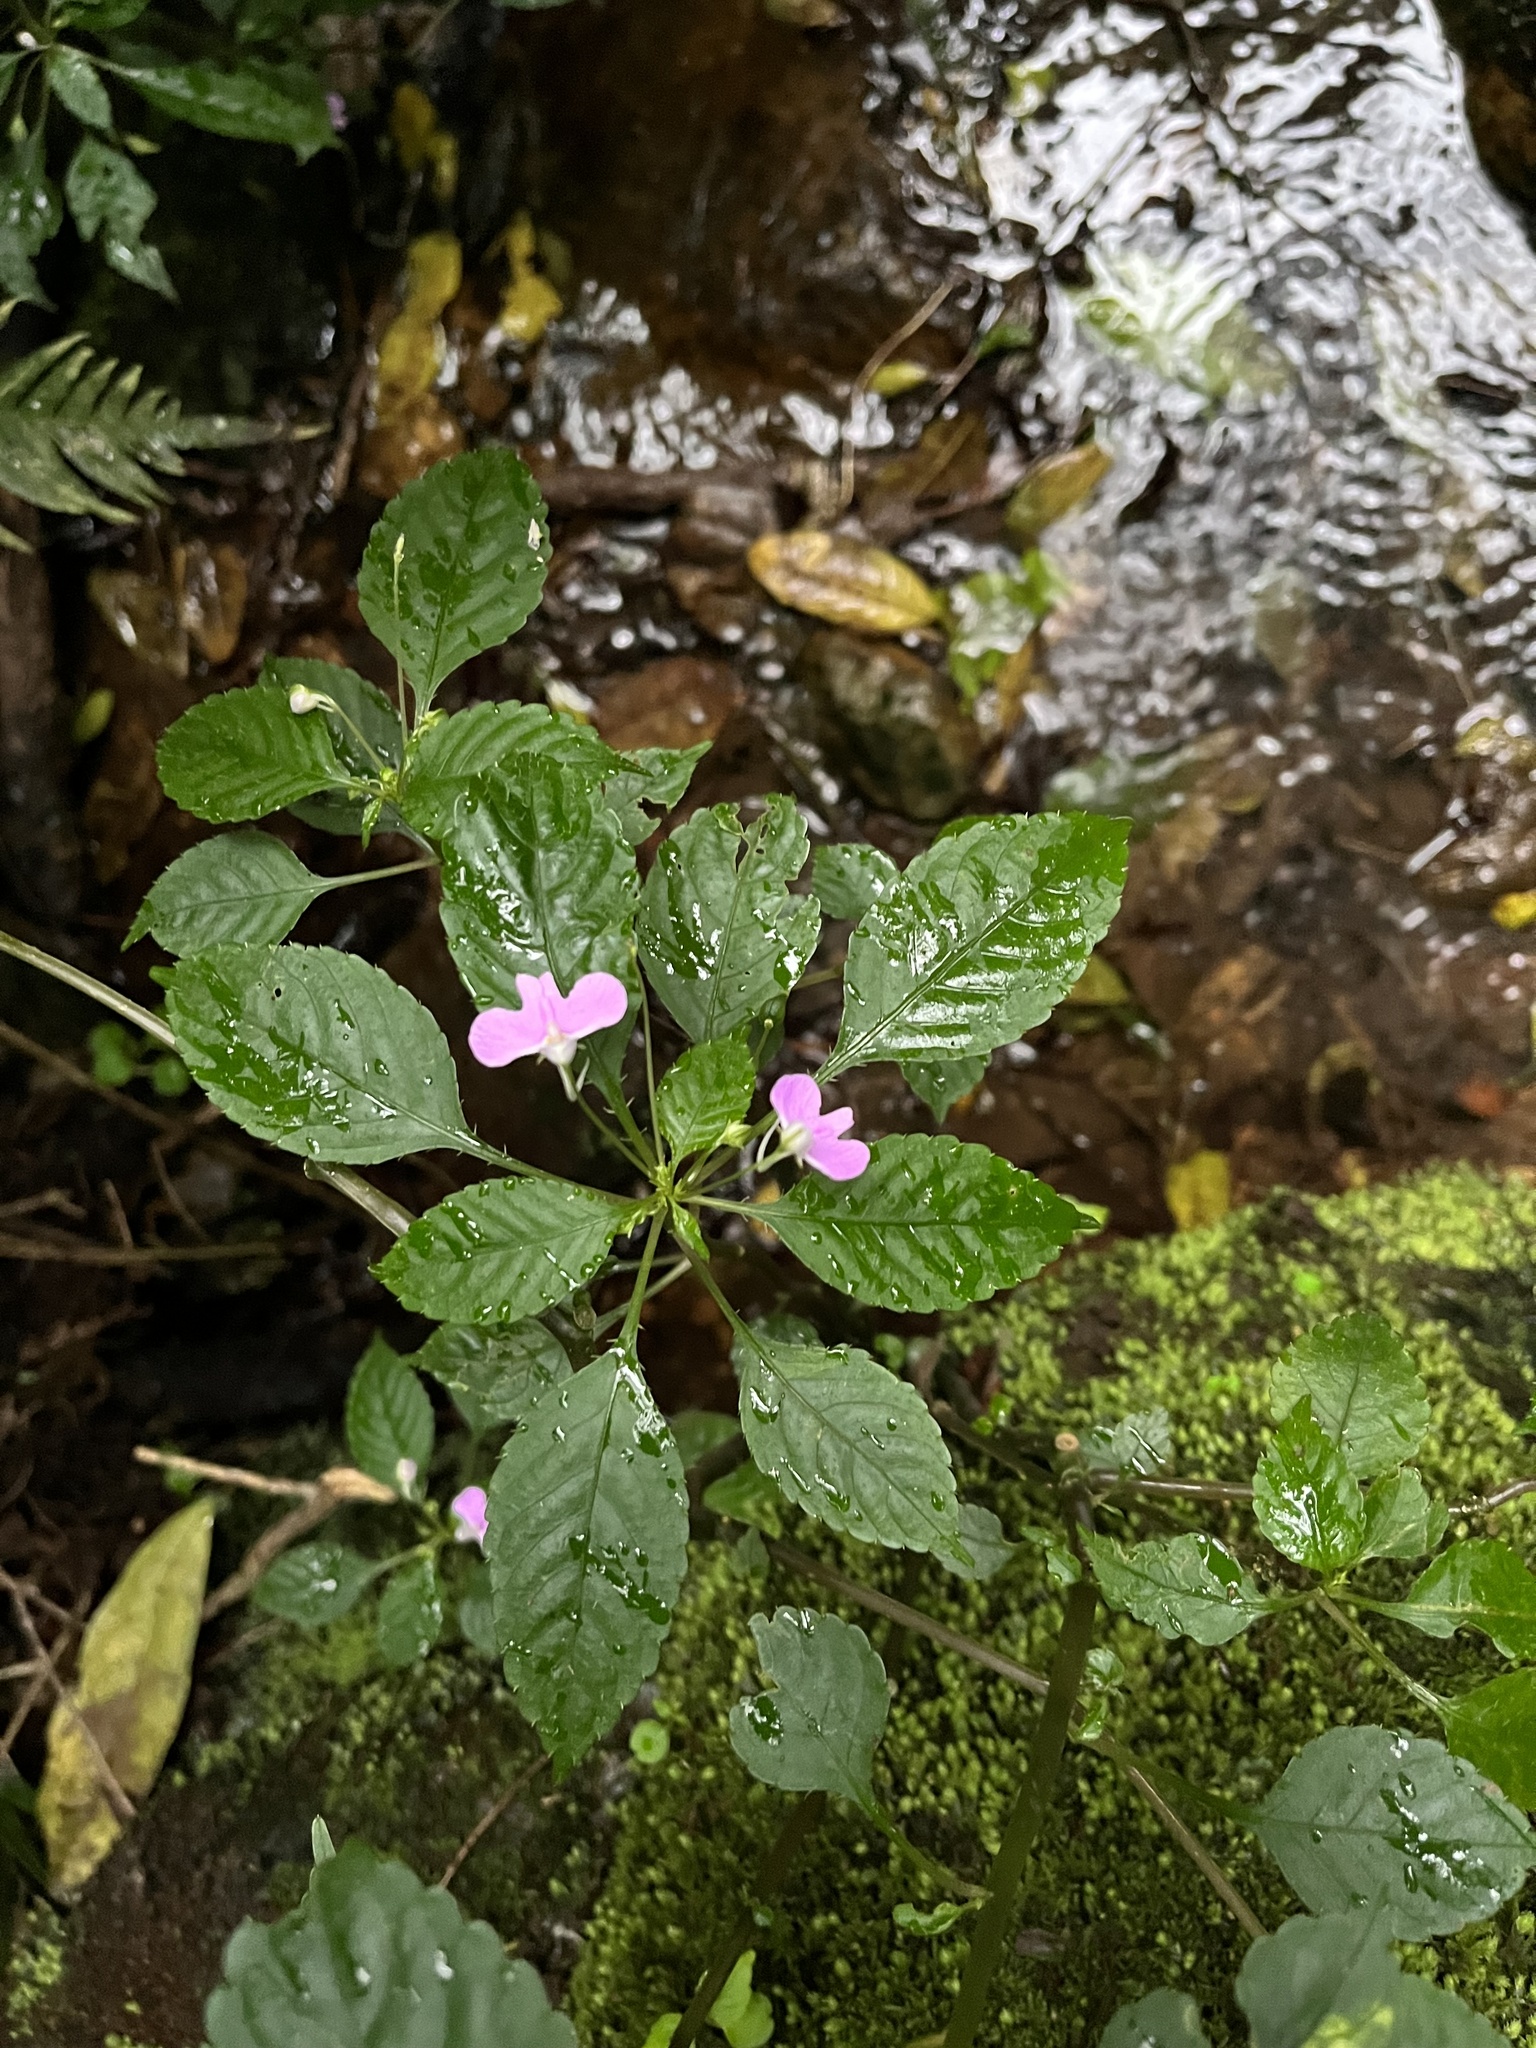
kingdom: Plantae
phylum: Tracheophyta
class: Magnoliopsida
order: Ericales
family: Balsaminaceae
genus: Impatiens
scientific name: Impatiens hochstetteri
